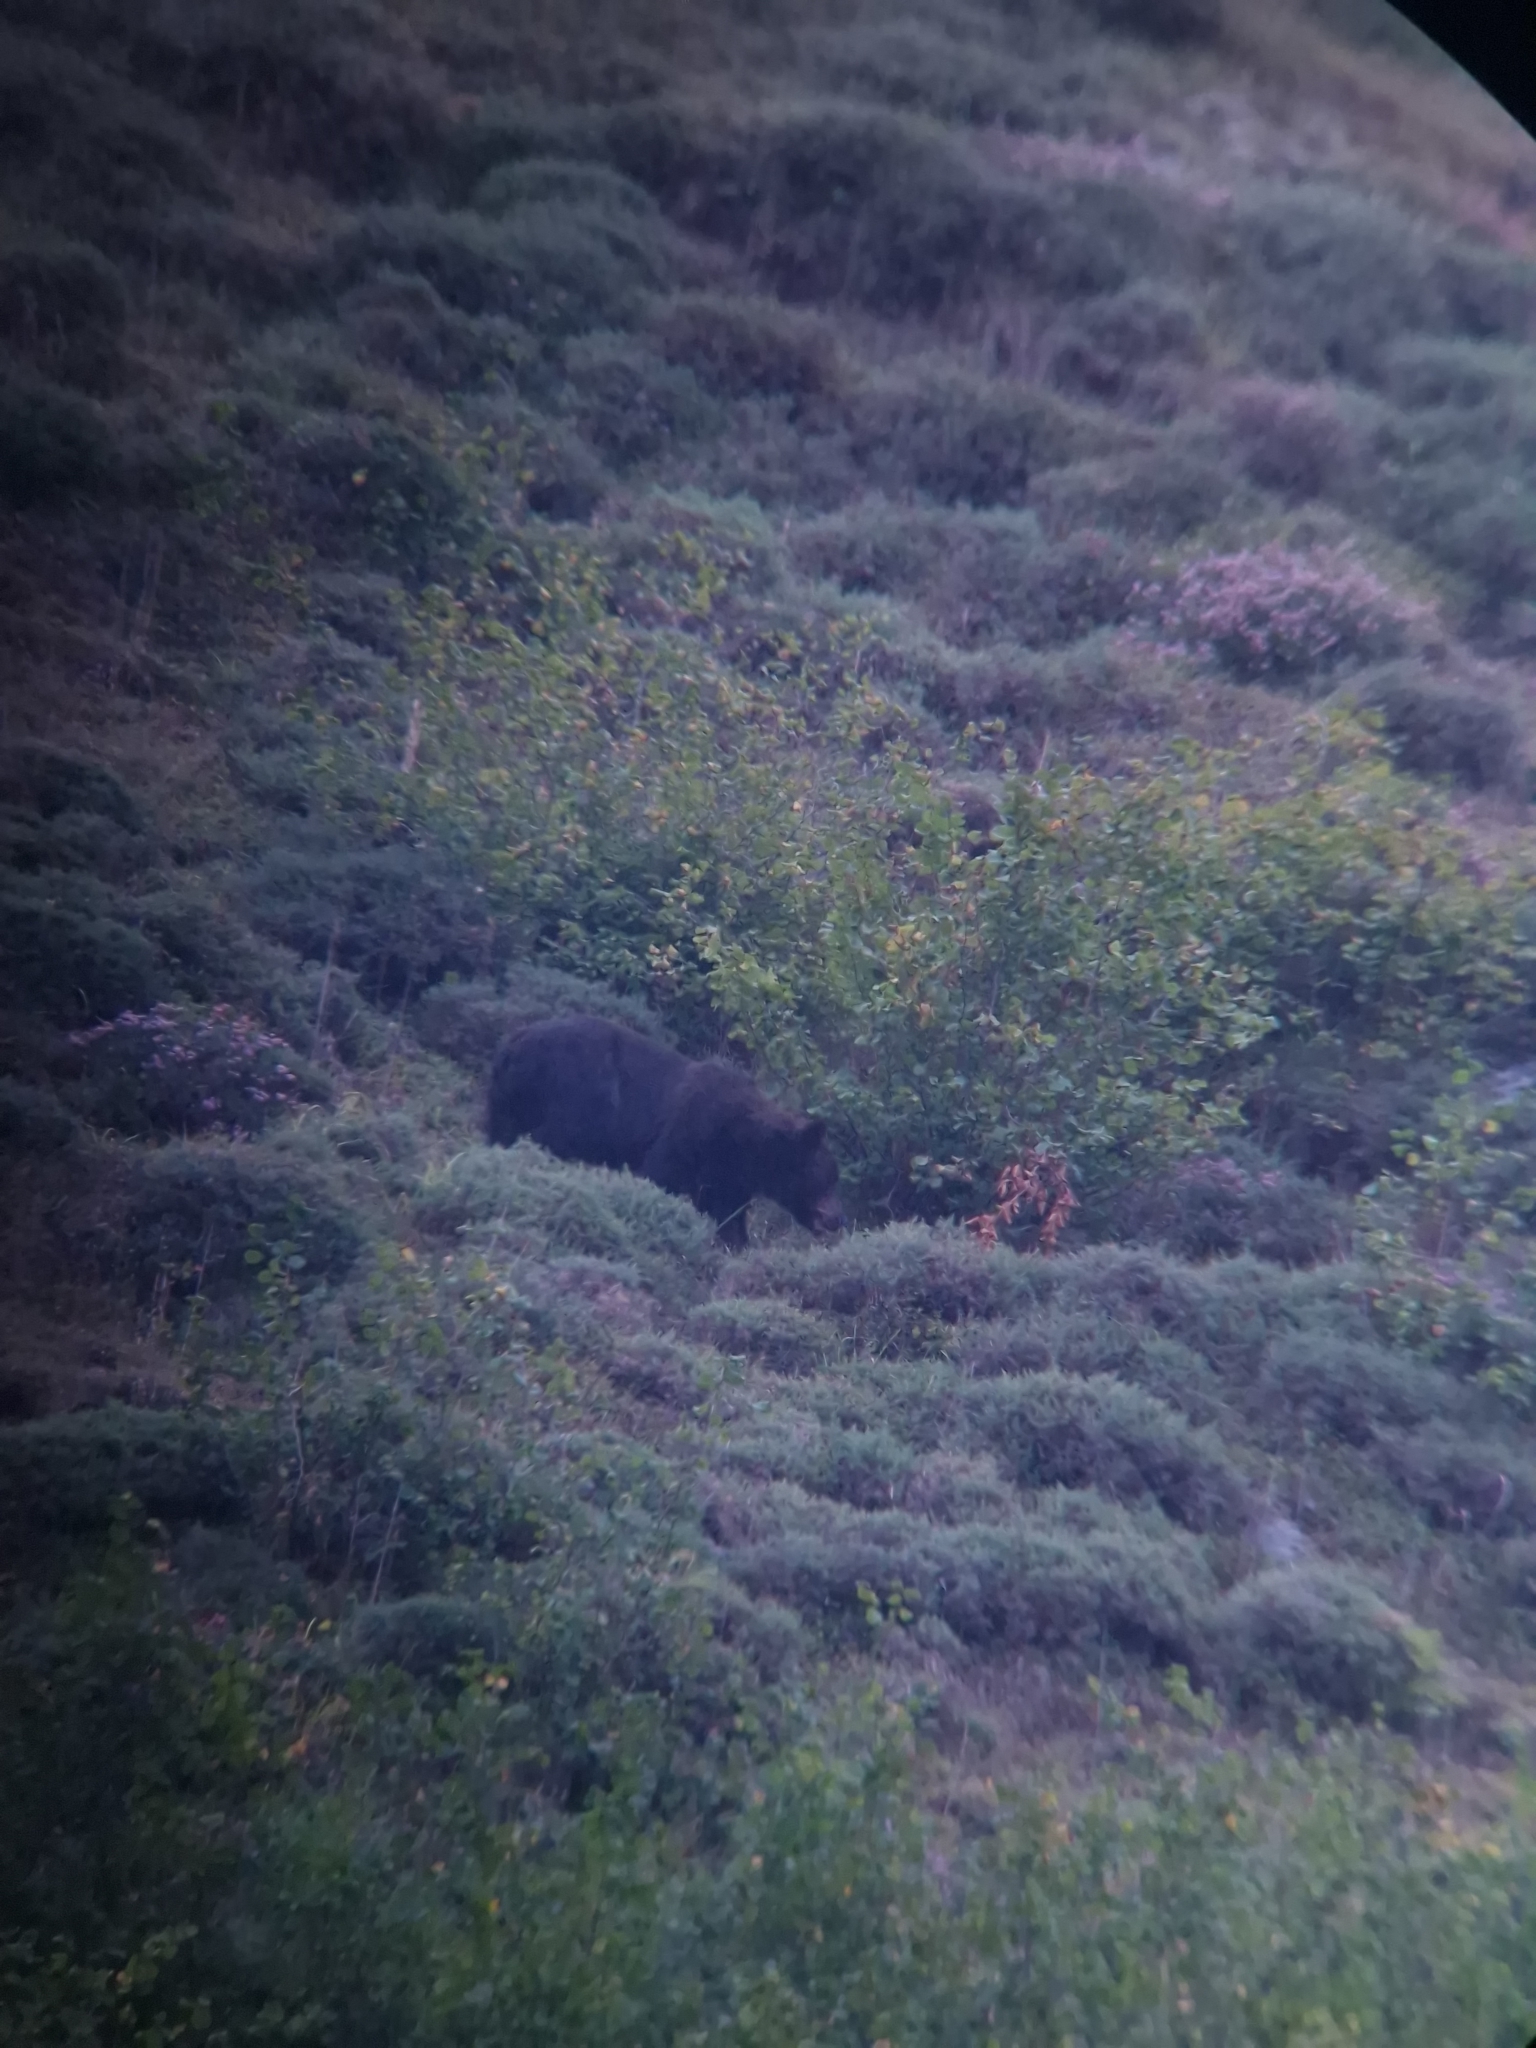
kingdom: Animalia
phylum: Chordata
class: Mammalia
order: Carnivora
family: Ursidae
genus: Ursus
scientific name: Ursus arctos
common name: Brown bear
